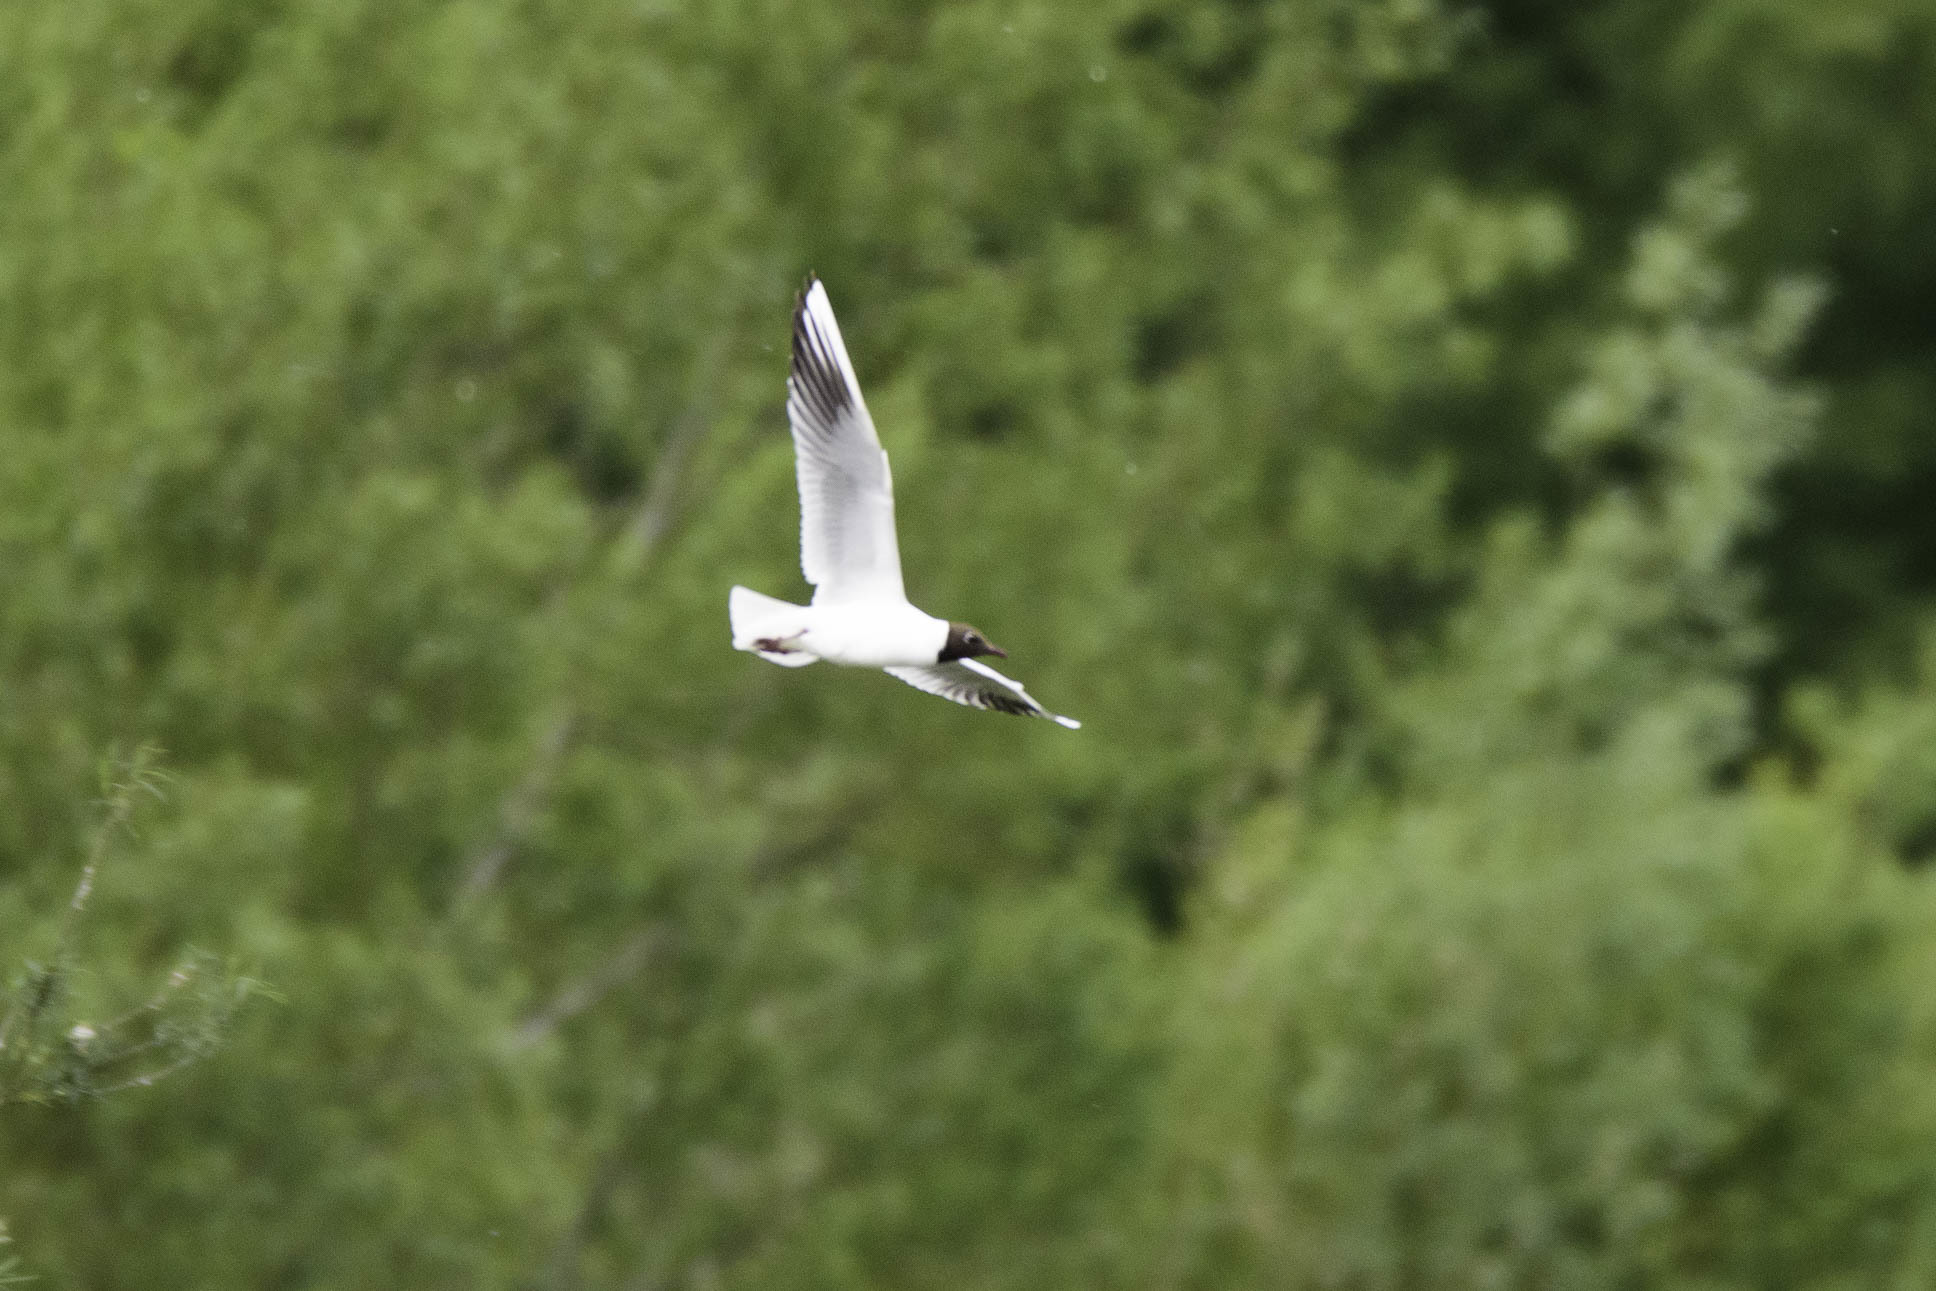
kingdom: Animalia
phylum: Chordata
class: Aves
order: Charadriiformes
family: Laridae
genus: Chroicocephalus
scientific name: Chroicocephalus ridibundus
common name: Black-headed gull
